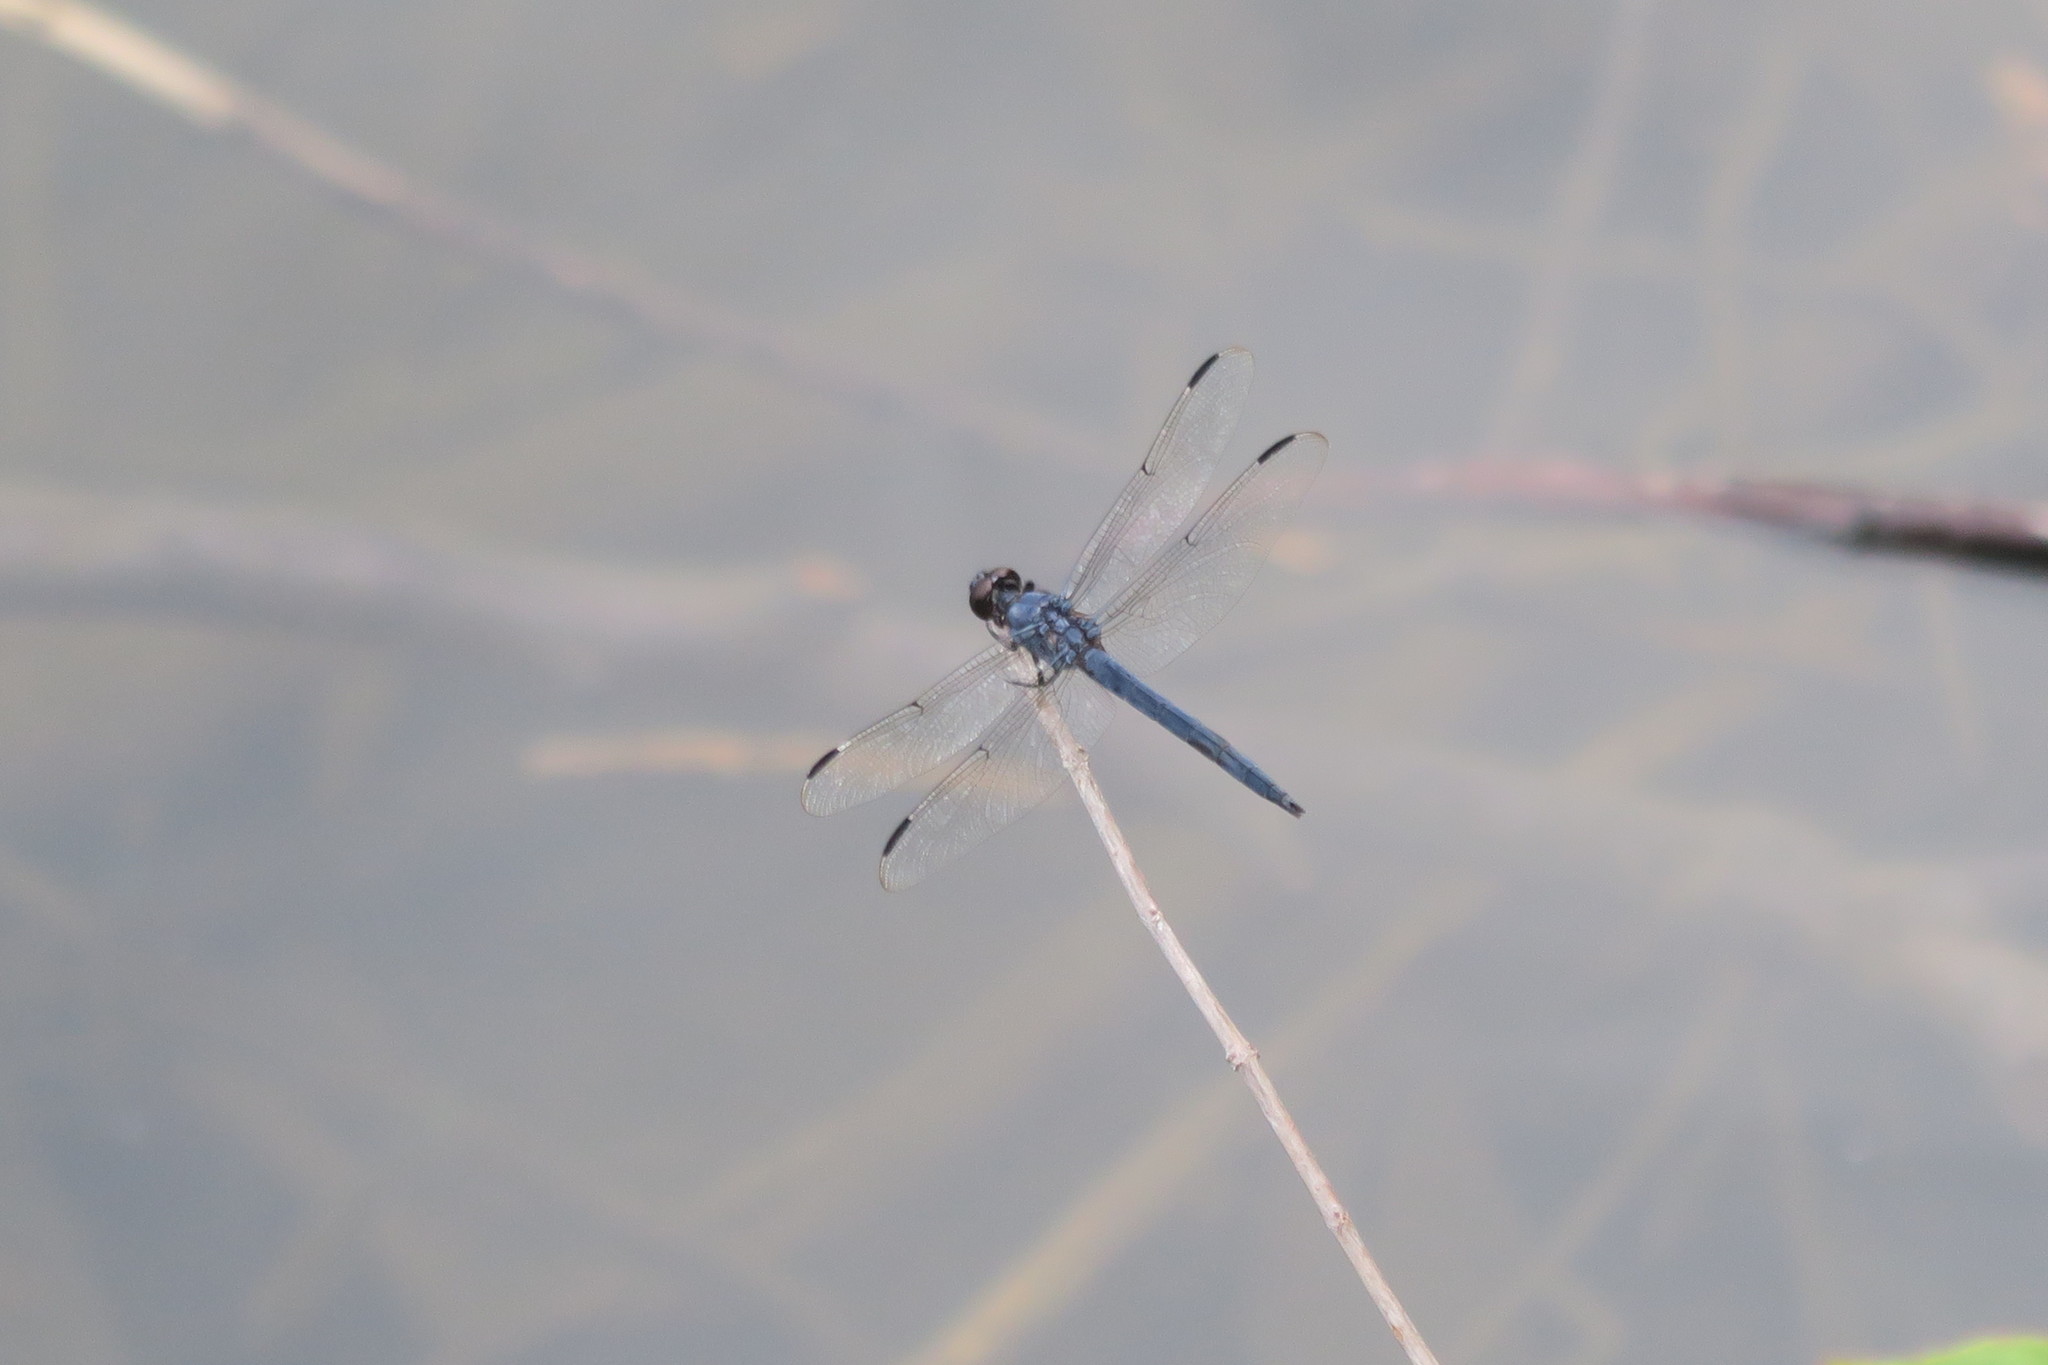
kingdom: Animalia
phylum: Arthropoda
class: Insecta
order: Odonata
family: Libellulidae
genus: Libellula
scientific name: Libellula incesta
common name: Slaty skimmer
